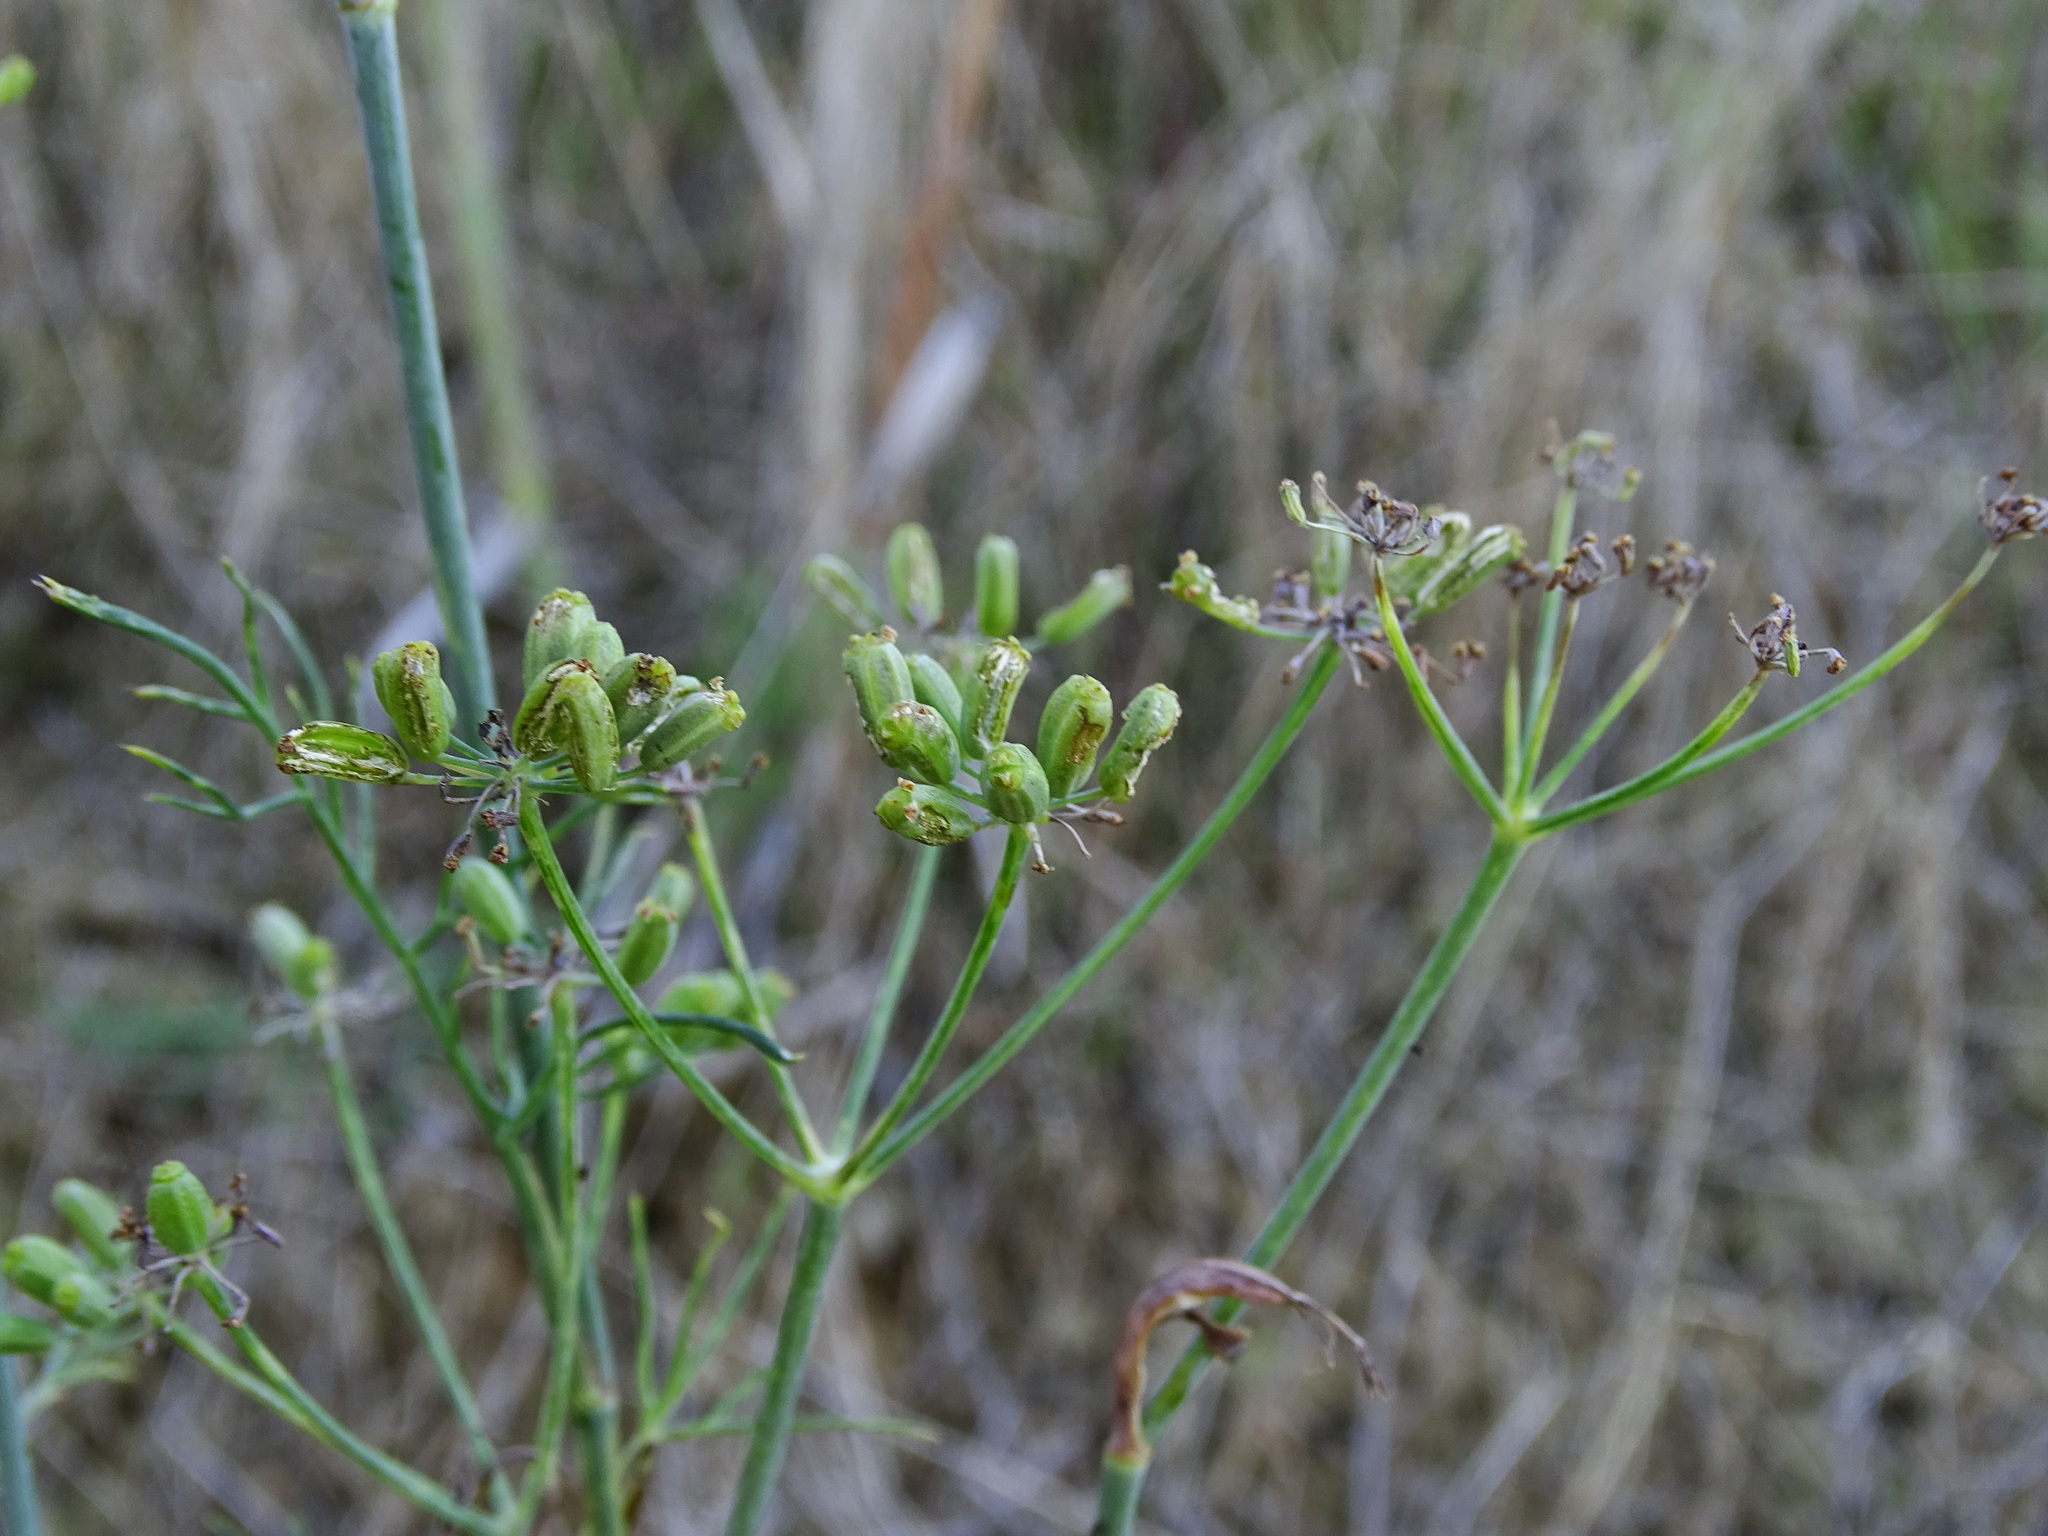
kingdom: Plantae
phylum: Tracheophyta
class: Magnoliopsida
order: Apiales
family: Apiaceae
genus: Foeniculum
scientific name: Foeniculum vulgare
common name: Fennel
